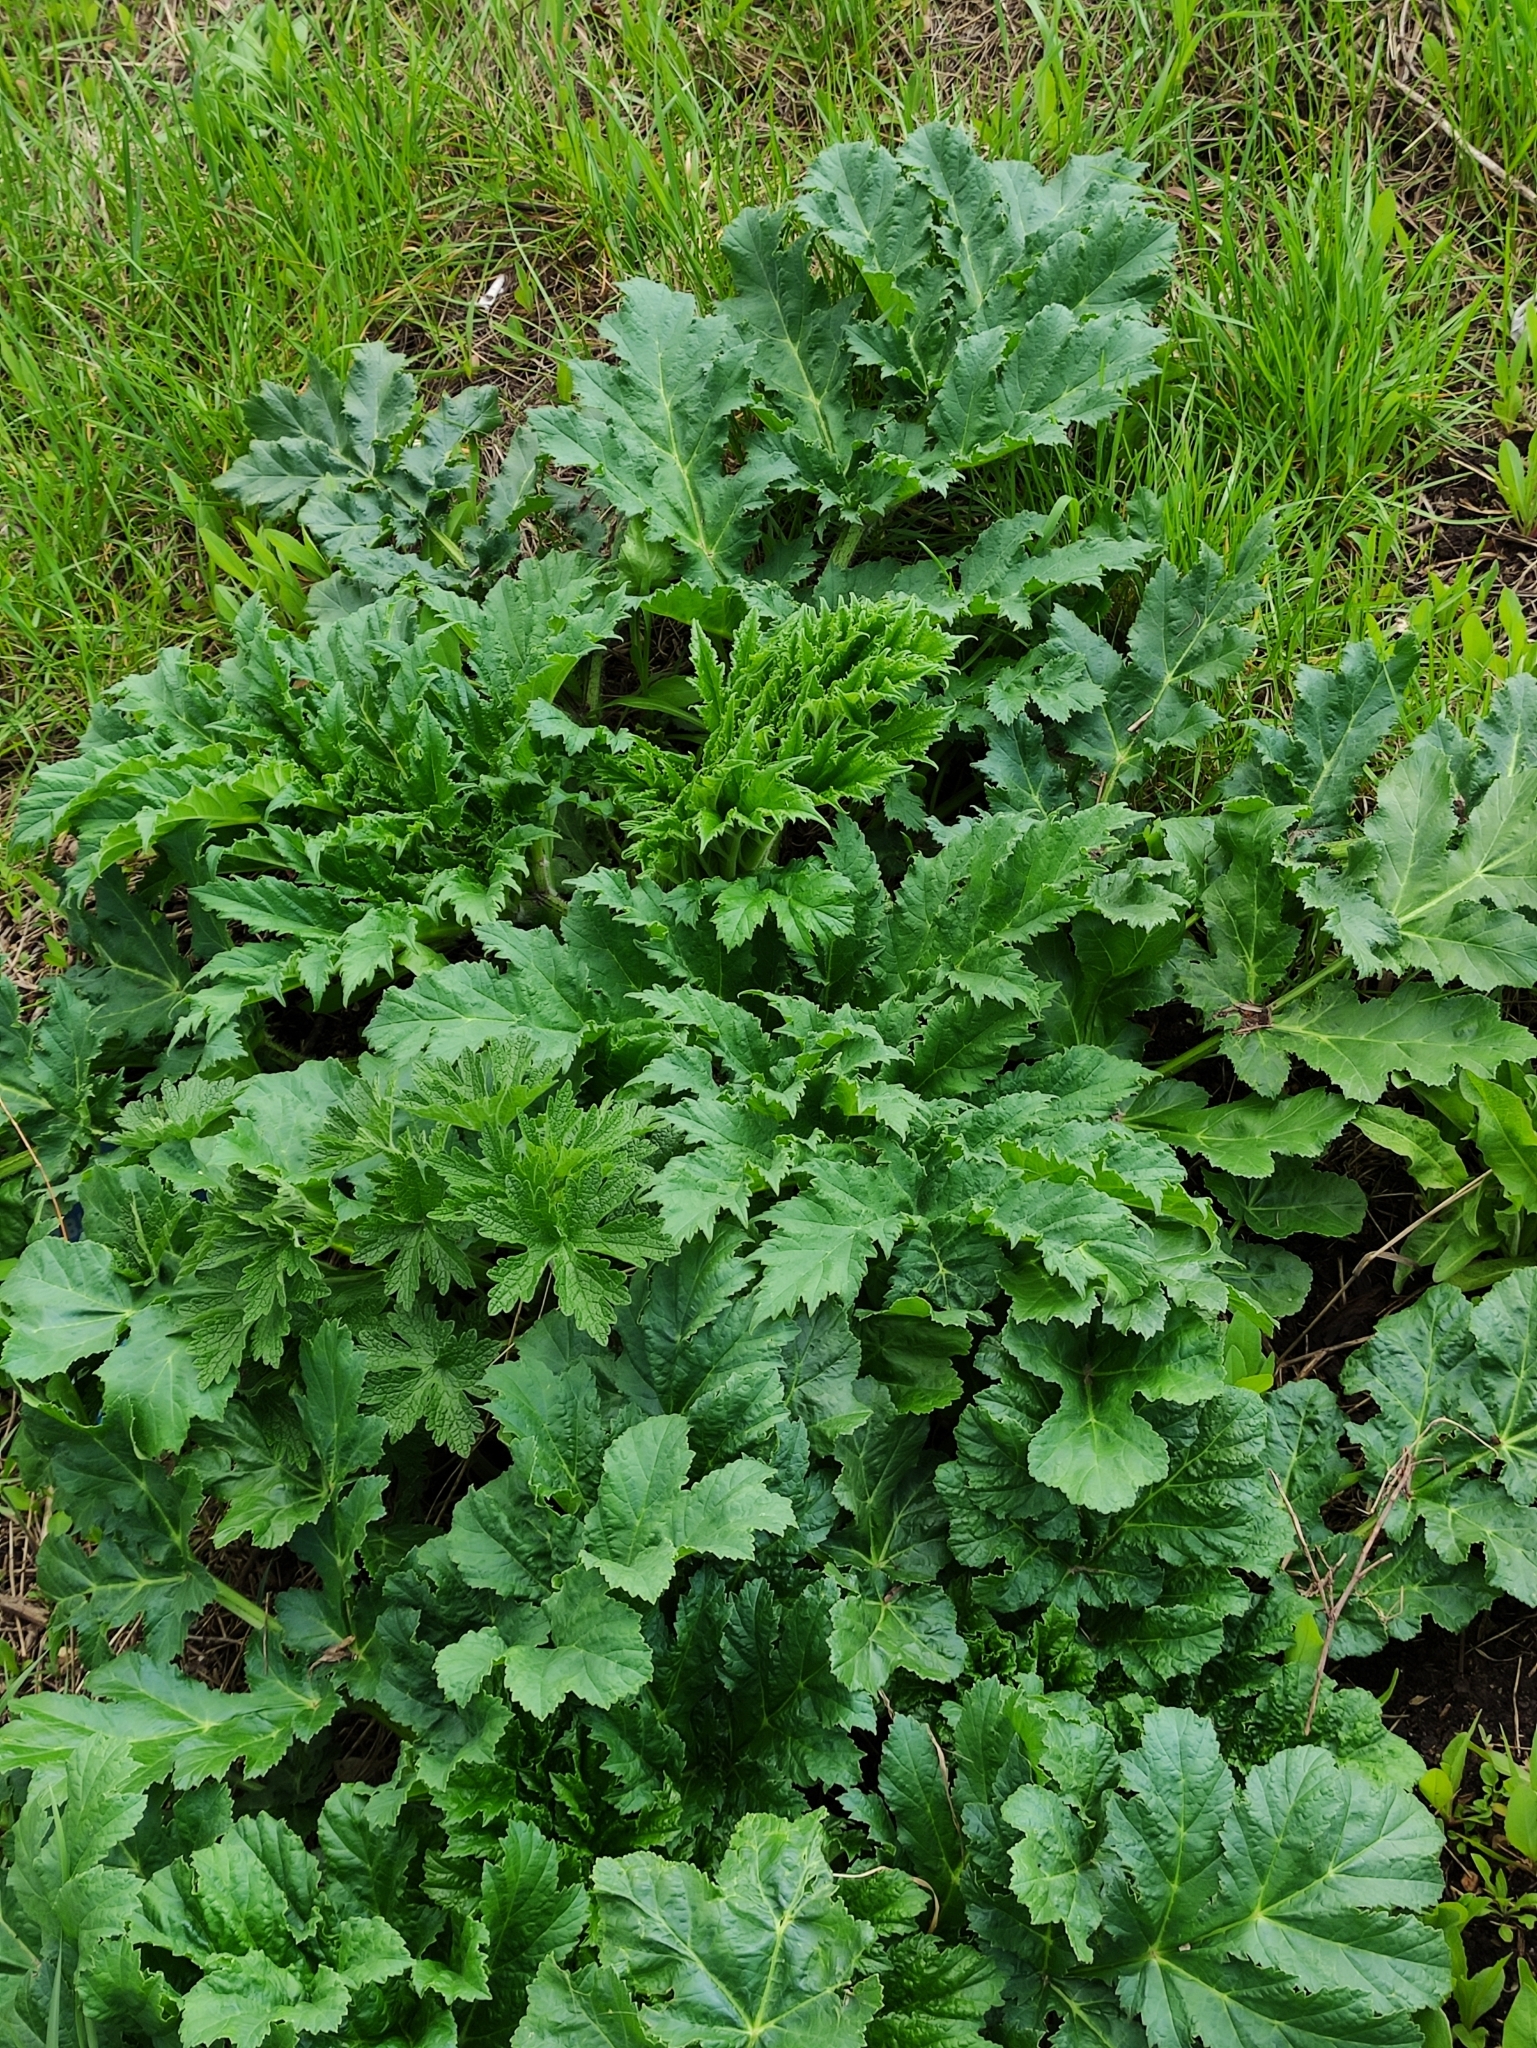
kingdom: Plantae
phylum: Tracheophyta
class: Magnoliopsida
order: Apiales
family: Apiaceae
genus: Heracleum
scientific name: Heracleum sosnowskyi
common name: Sosnowsky's hogweed
